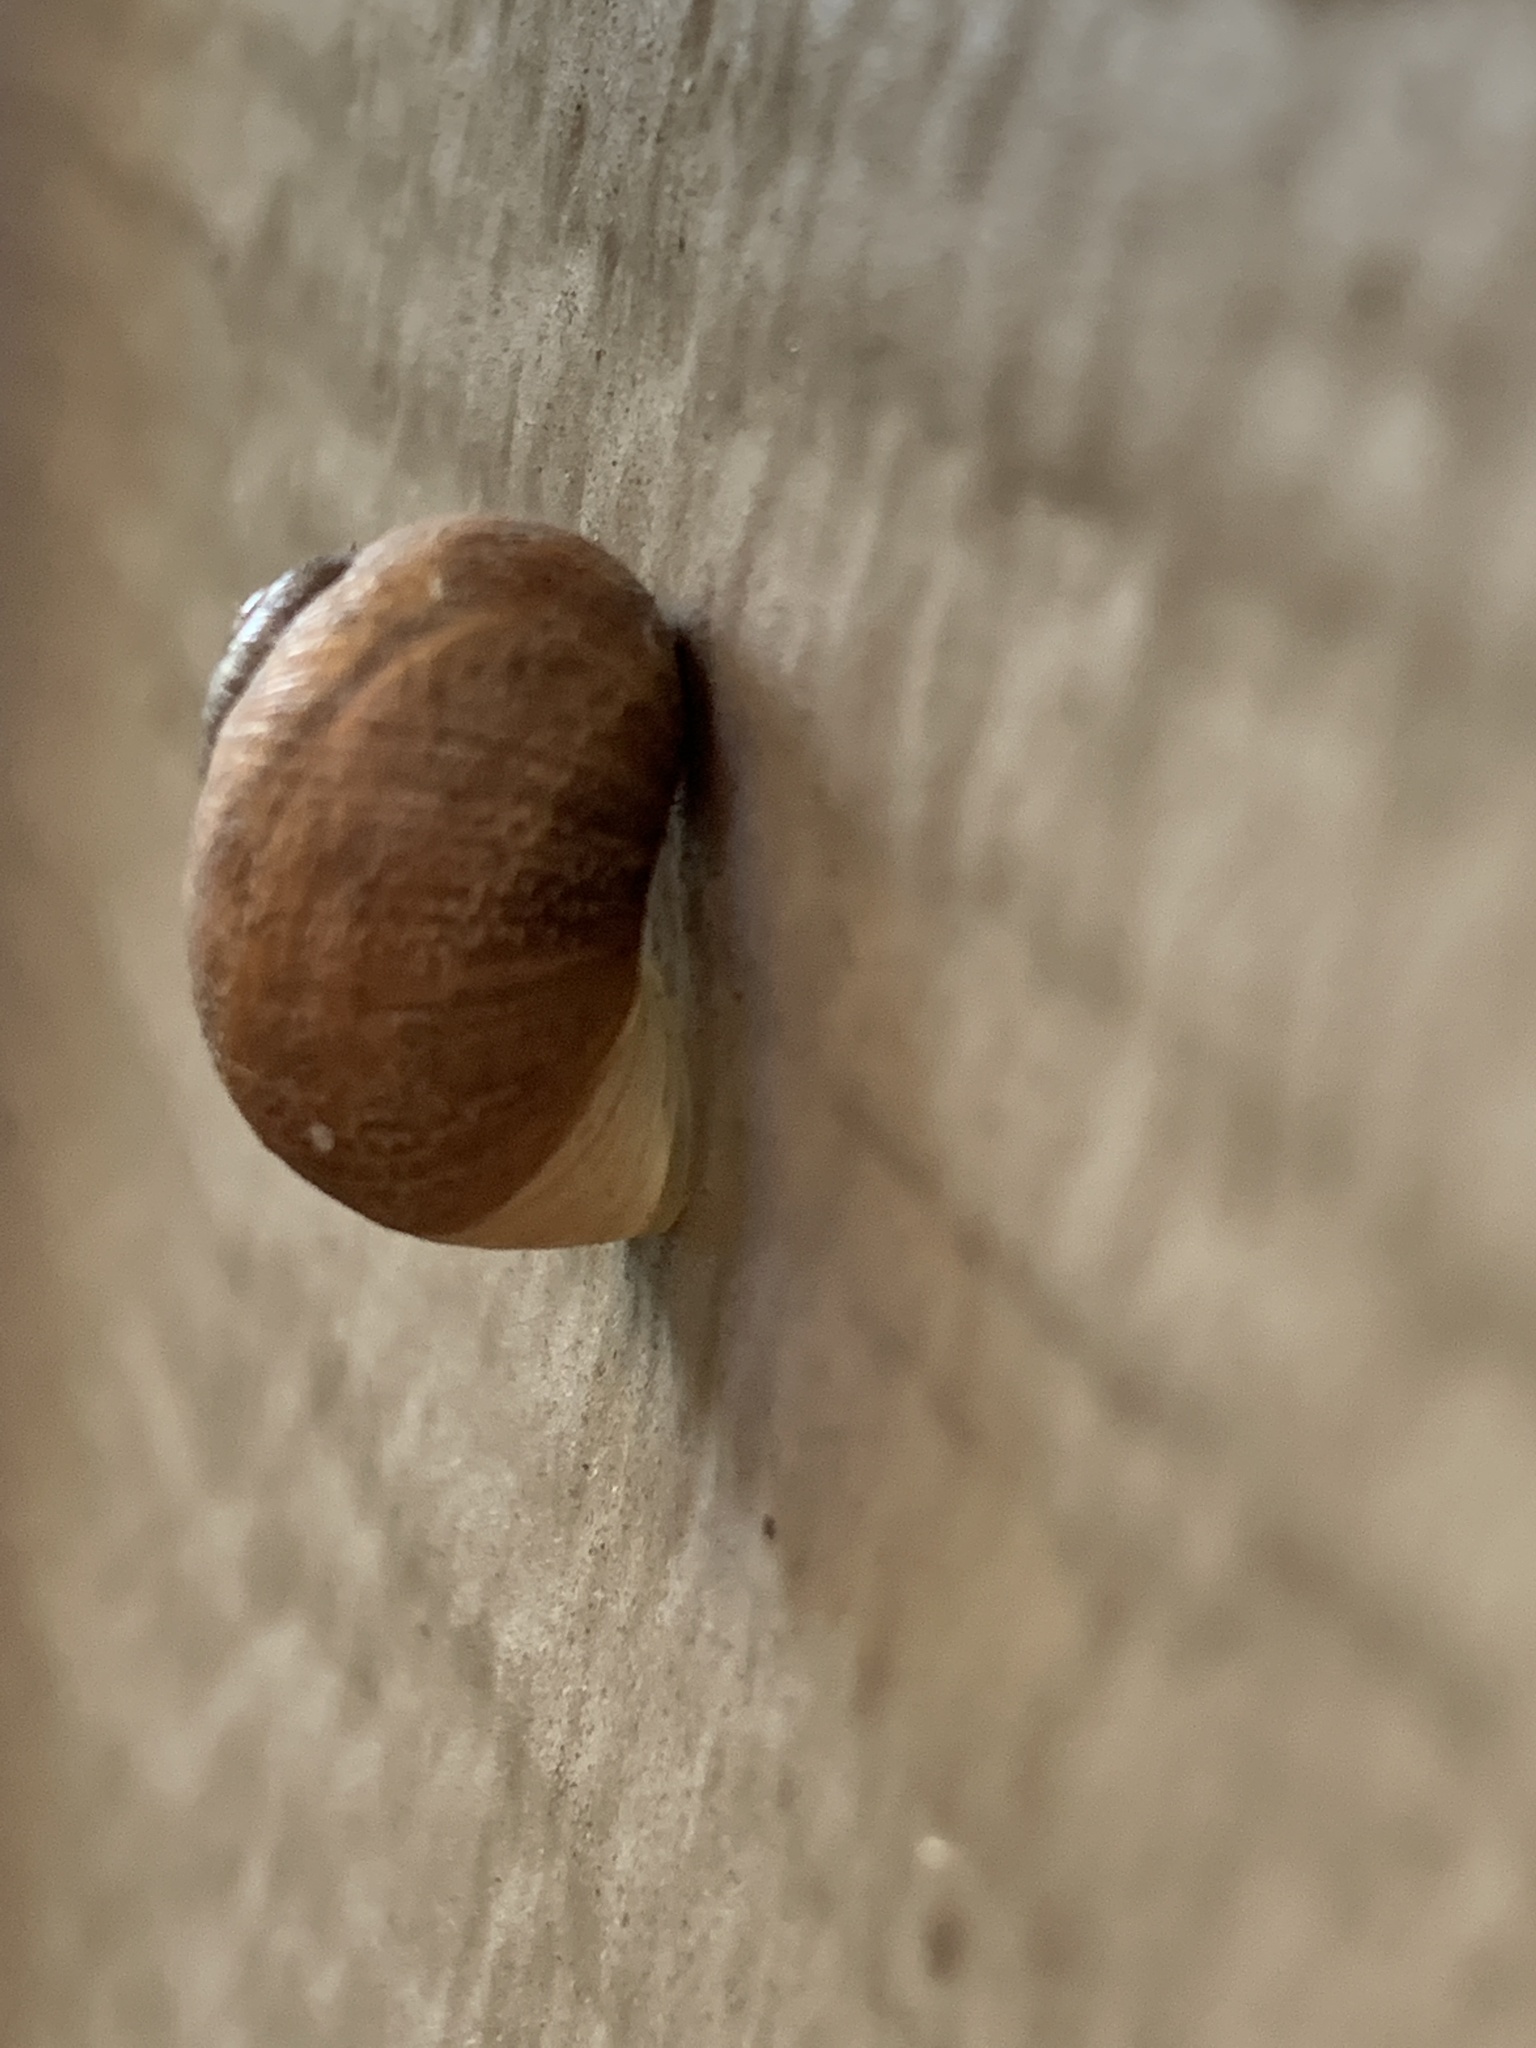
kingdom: Animalia
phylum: Mollusca
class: Gastropoda
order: Stylommatophora
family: Helicidae
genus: Cornu
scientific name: Cornu aspersum
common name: Brown garden snail
